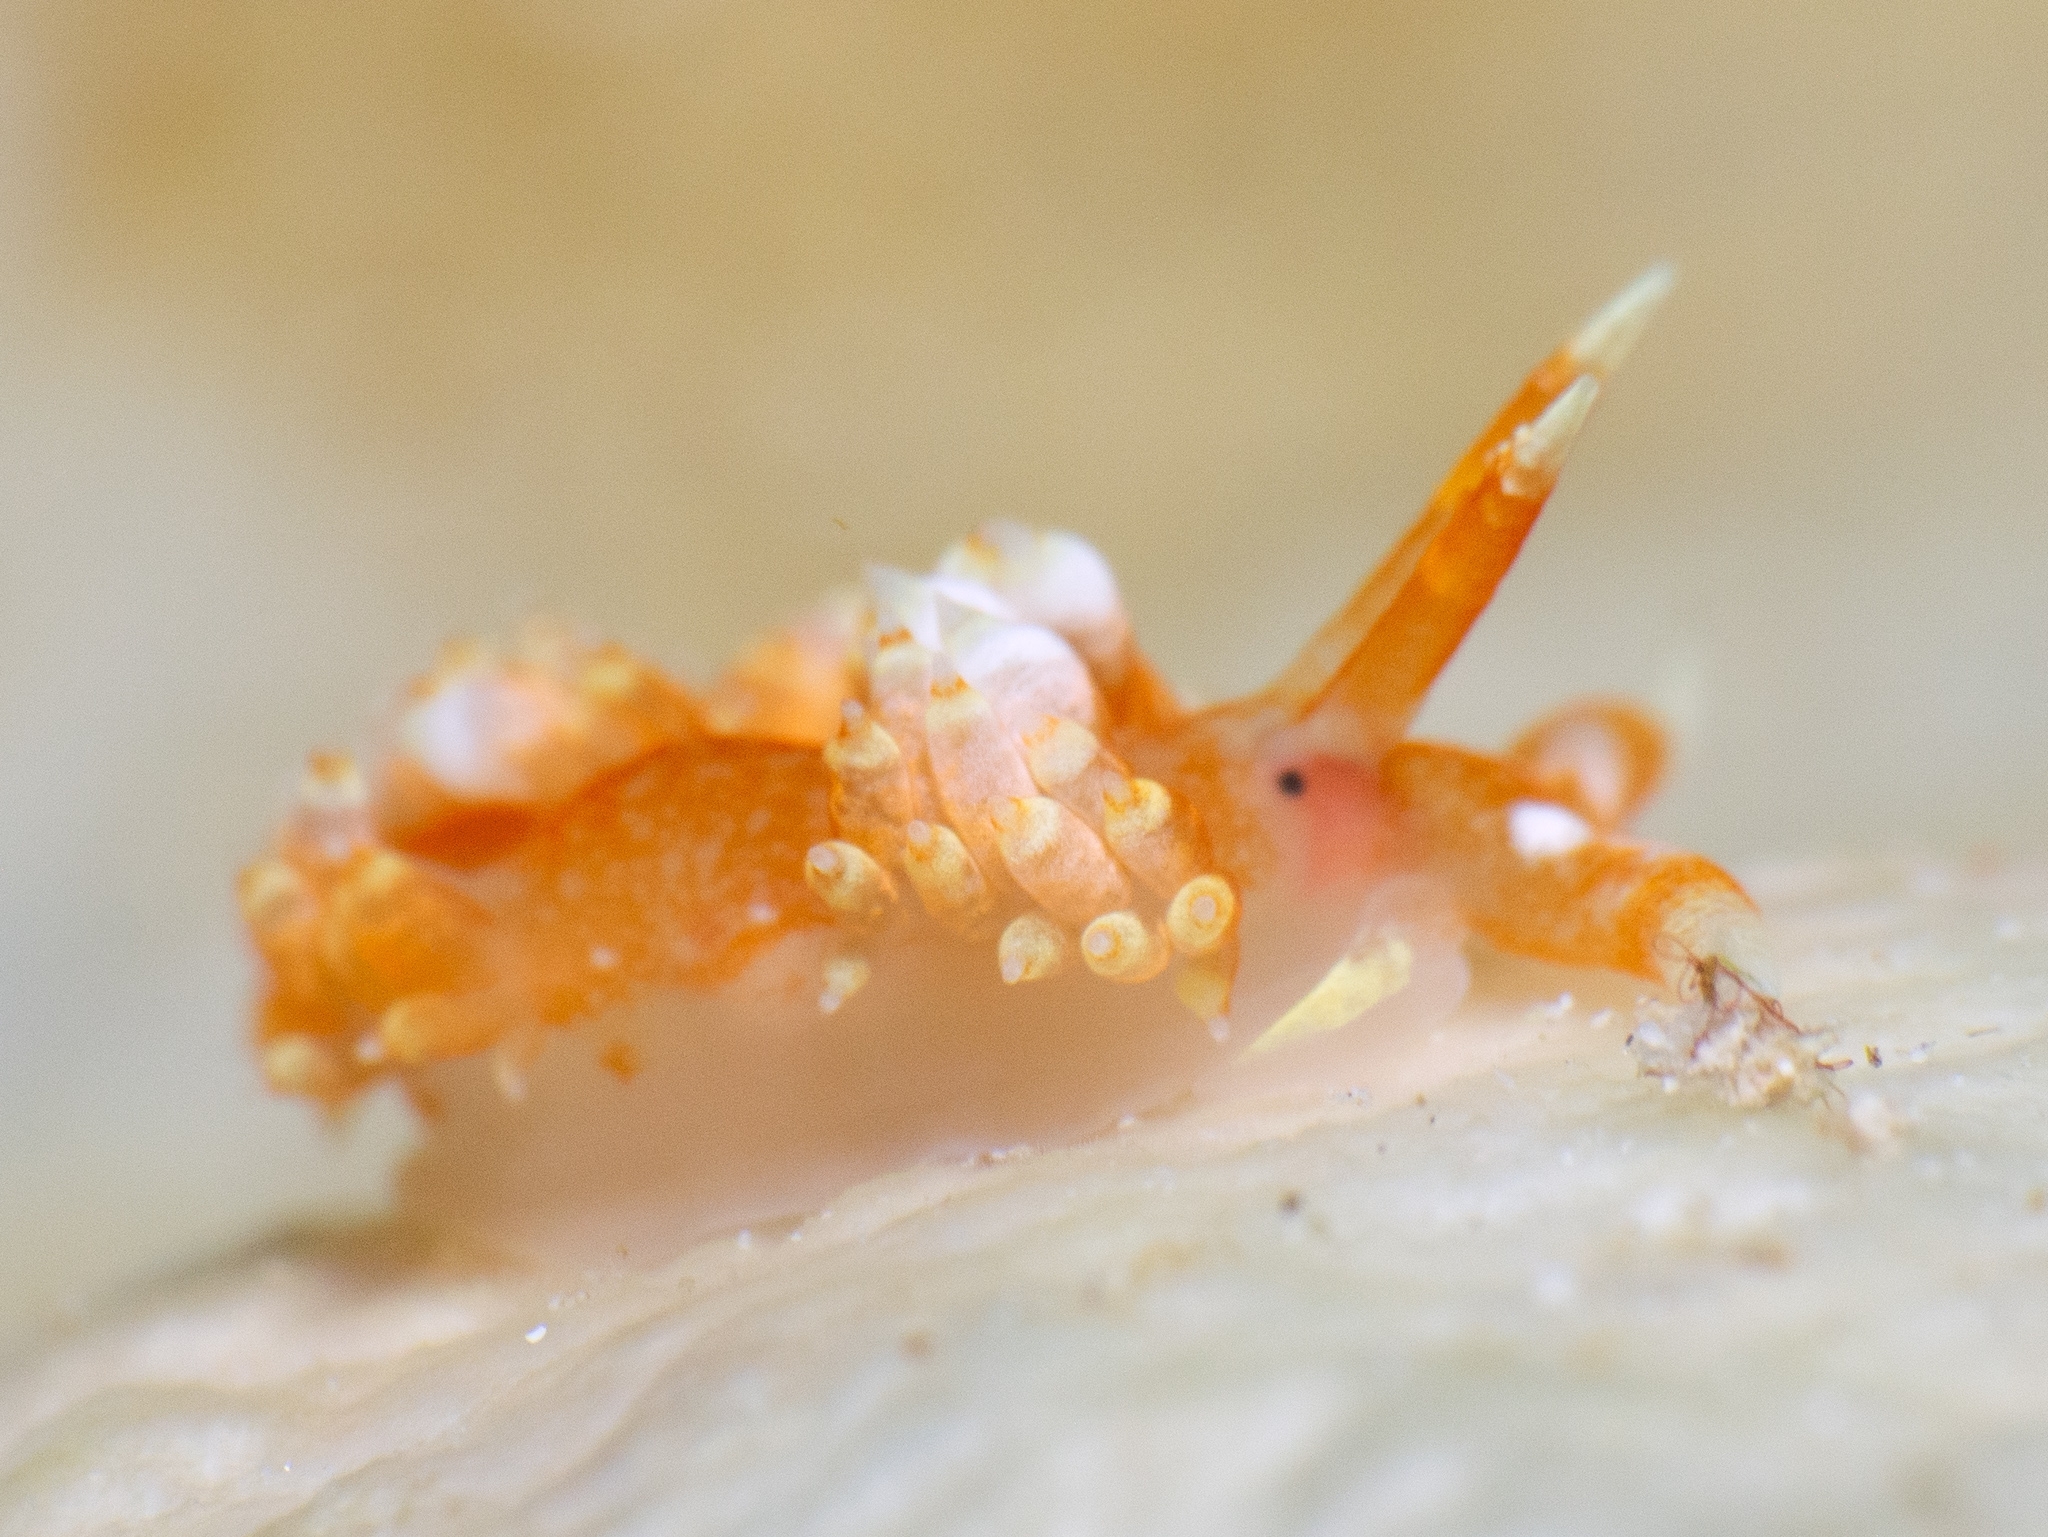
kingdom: Animalia
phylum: Mollusca
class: Gastropoda
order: Nudibranchia
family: Facelinidae
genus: Austraeolis
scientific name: Austraeolis catina
